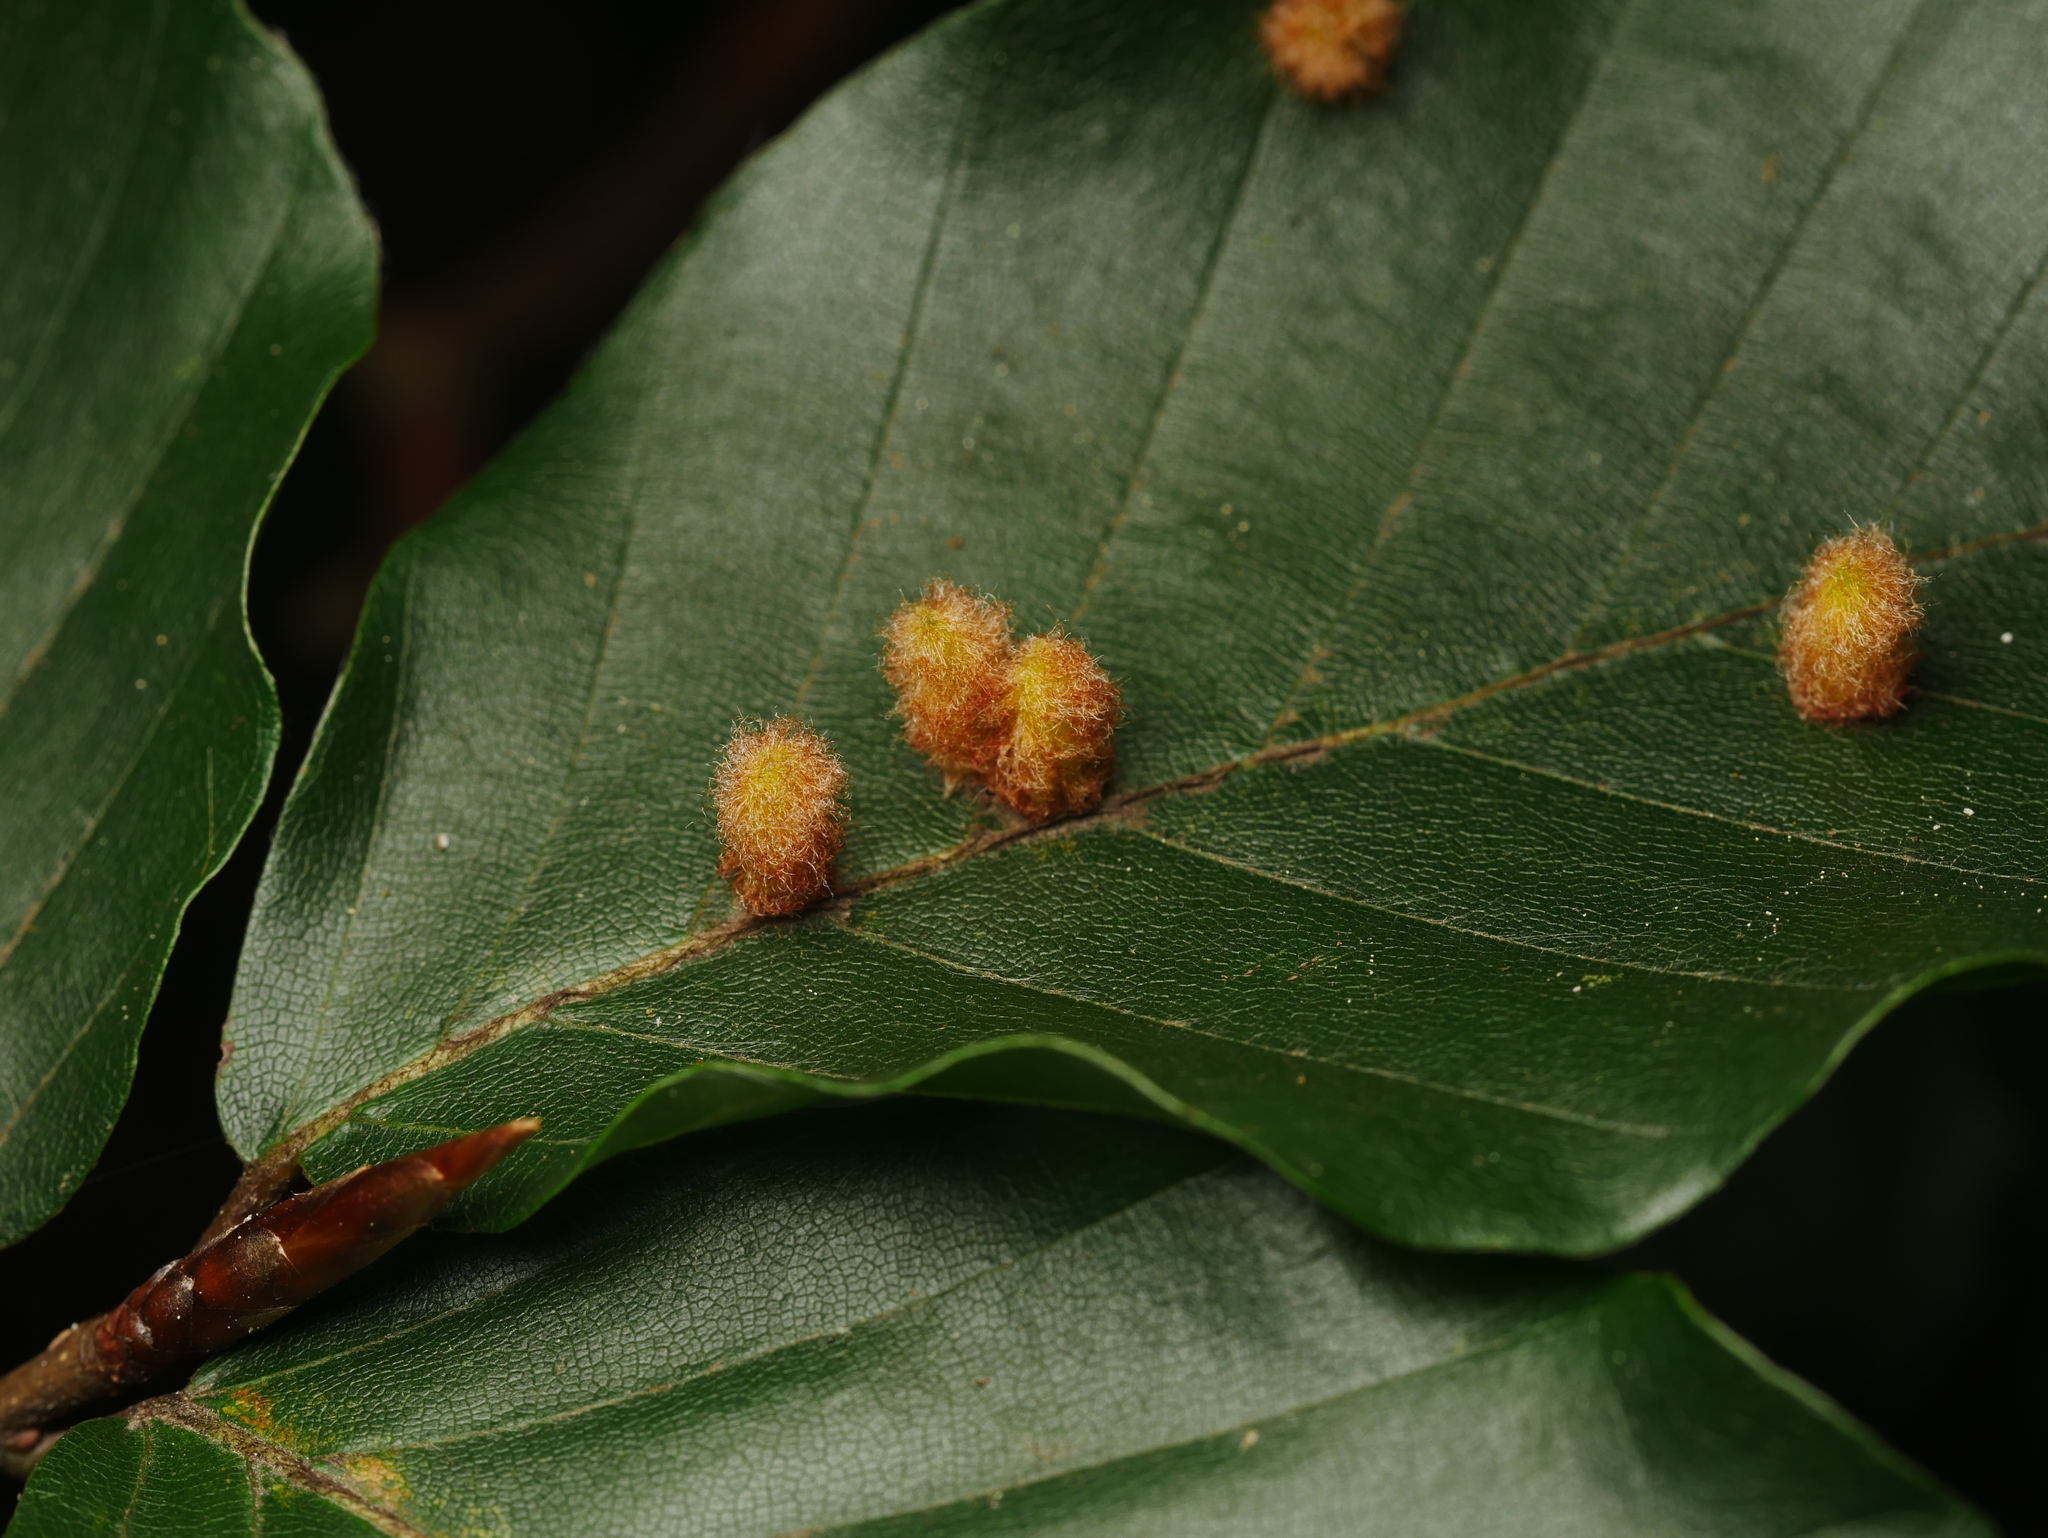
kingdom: Animalia
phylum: Arthropoda
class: Insecta
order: Diptera
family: Cecidomyiidae
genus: Hartigiola
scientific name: Hartigiola annulipes
